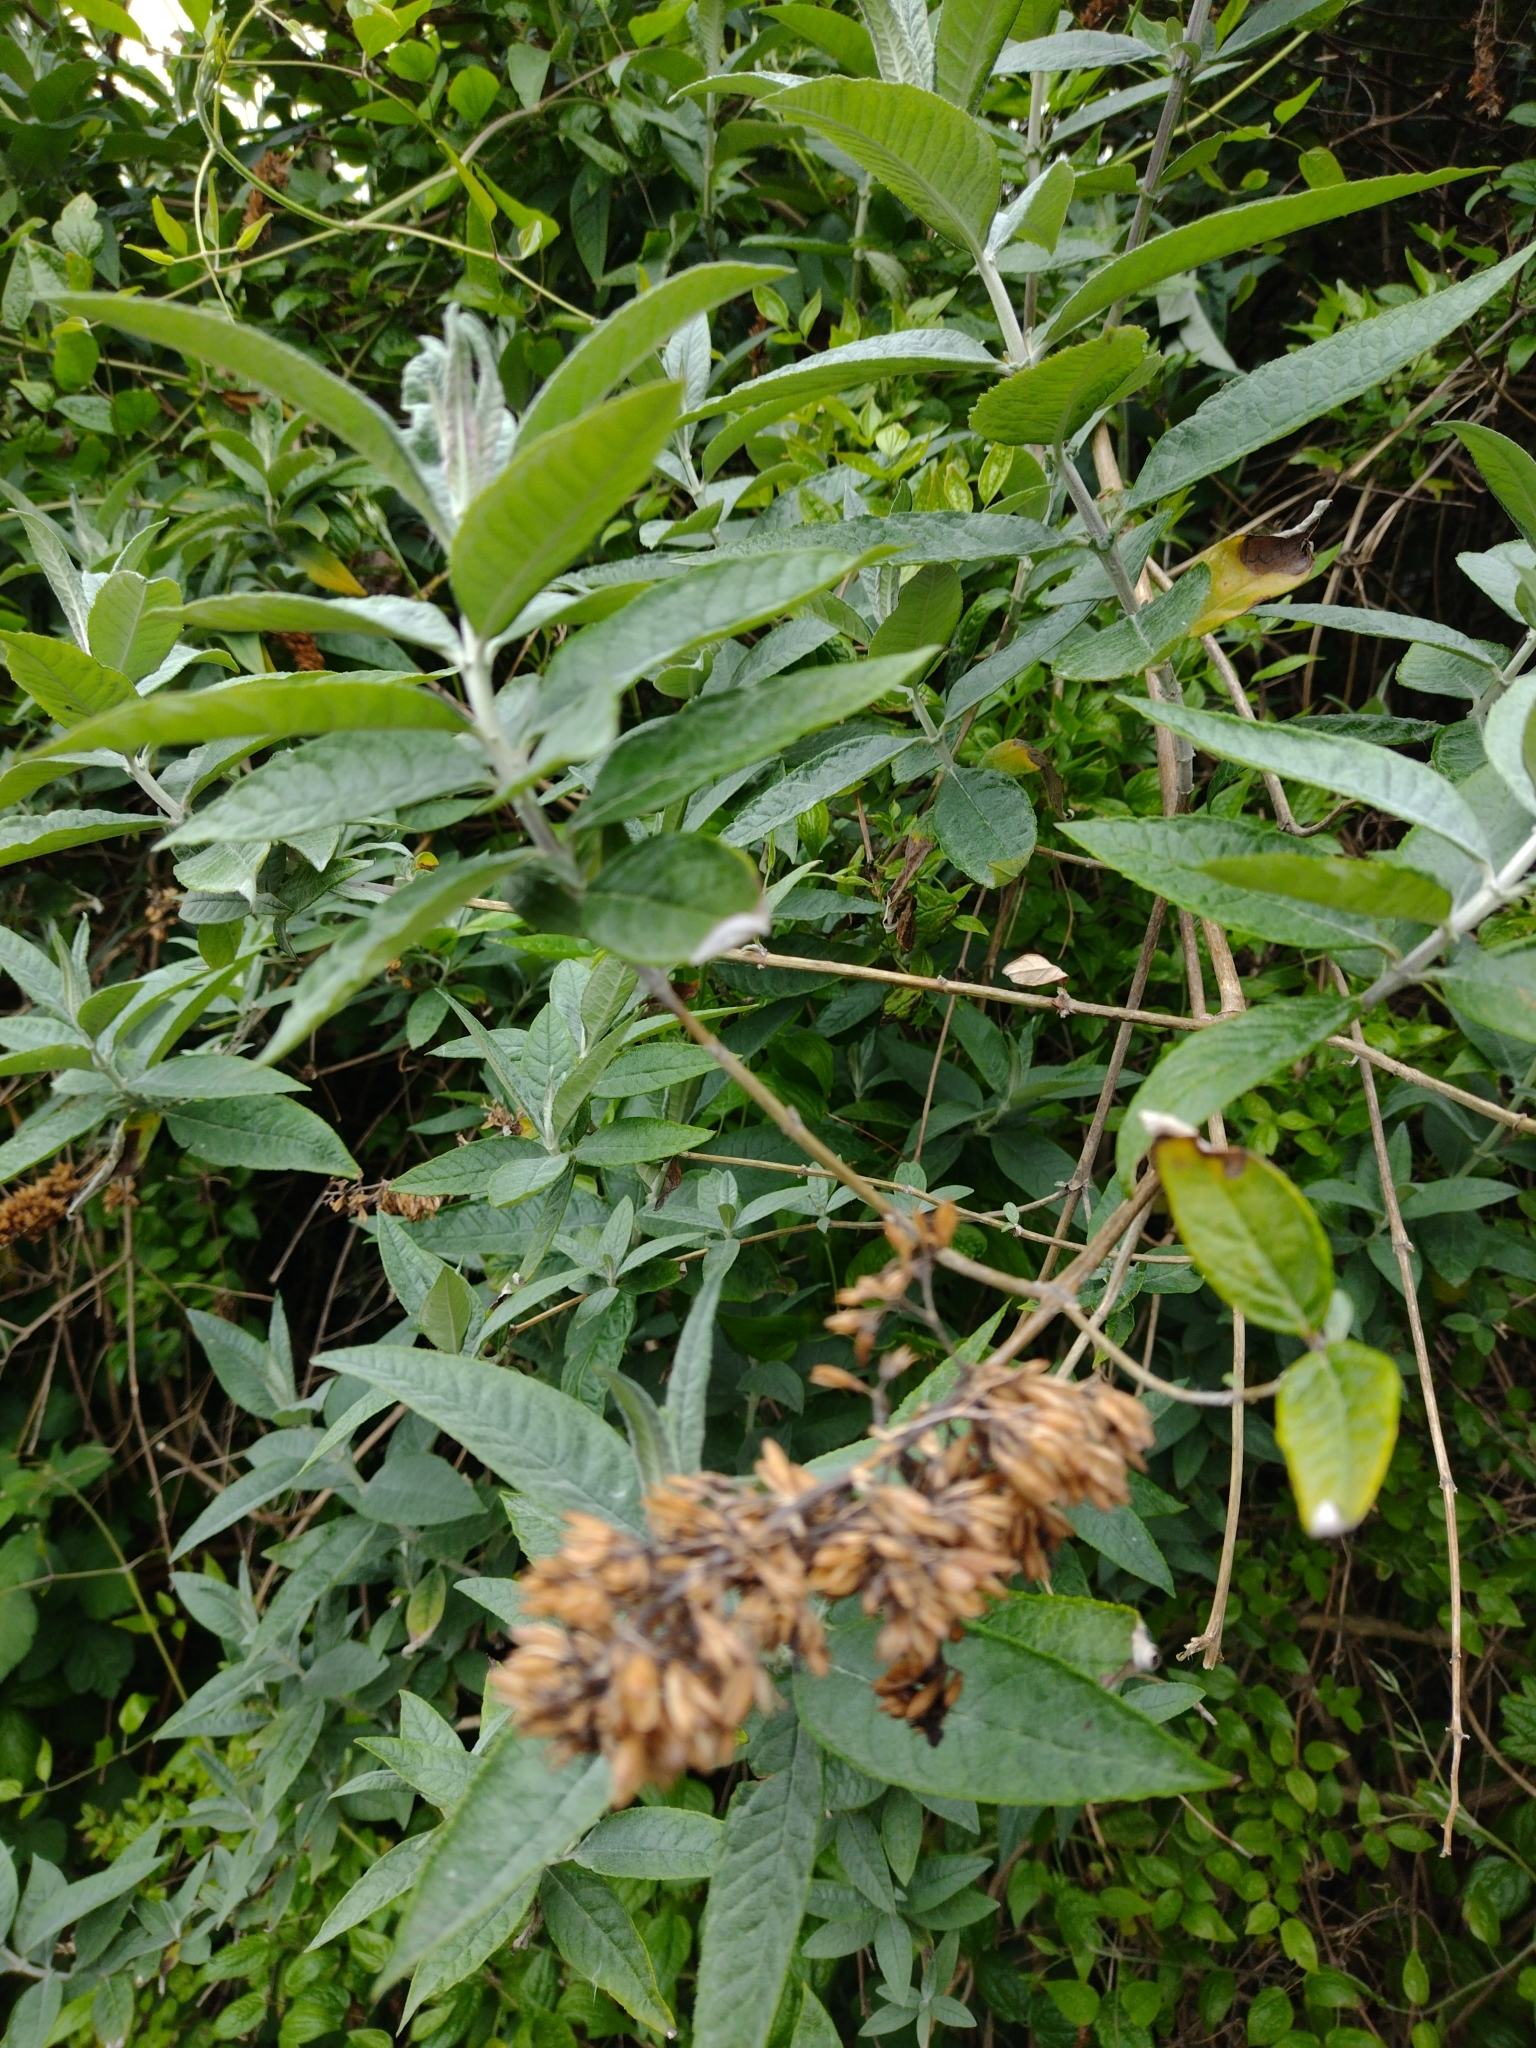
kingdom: Plantae
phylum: Tracheophyta
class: Magnoliopsida
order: Lamiales
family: Scrophulariaceae
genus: Buddleja
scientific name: Buddleja davidii
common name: Butterfly-bush
